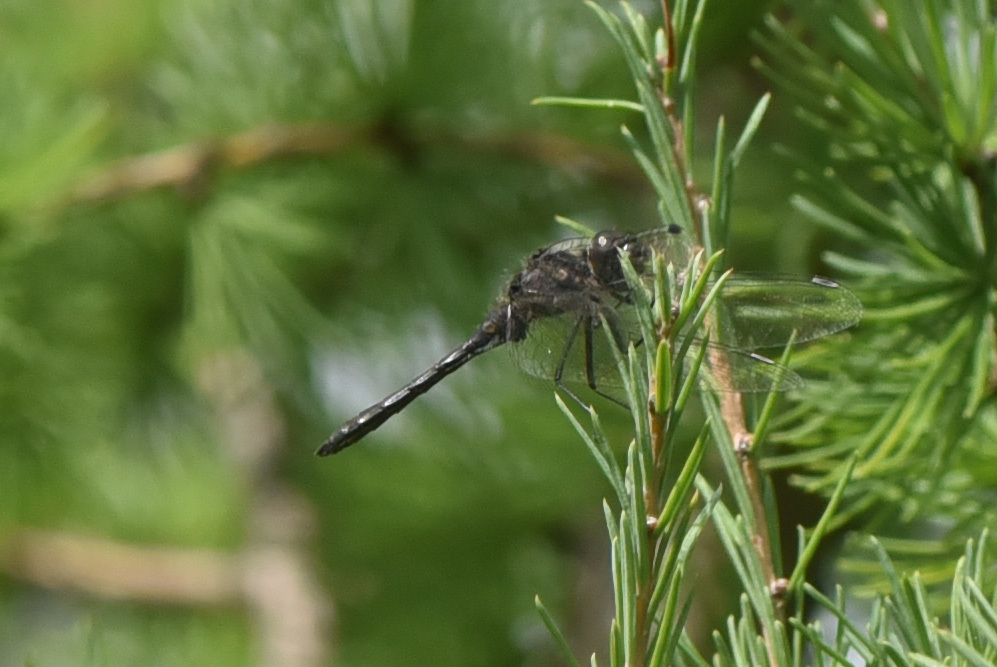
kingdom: Animalia
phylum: Arthropoda
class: Insecta
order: Odonata
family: Libellulidae
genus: Sympetrum
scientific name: Sympetrum danae
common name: Black darter
